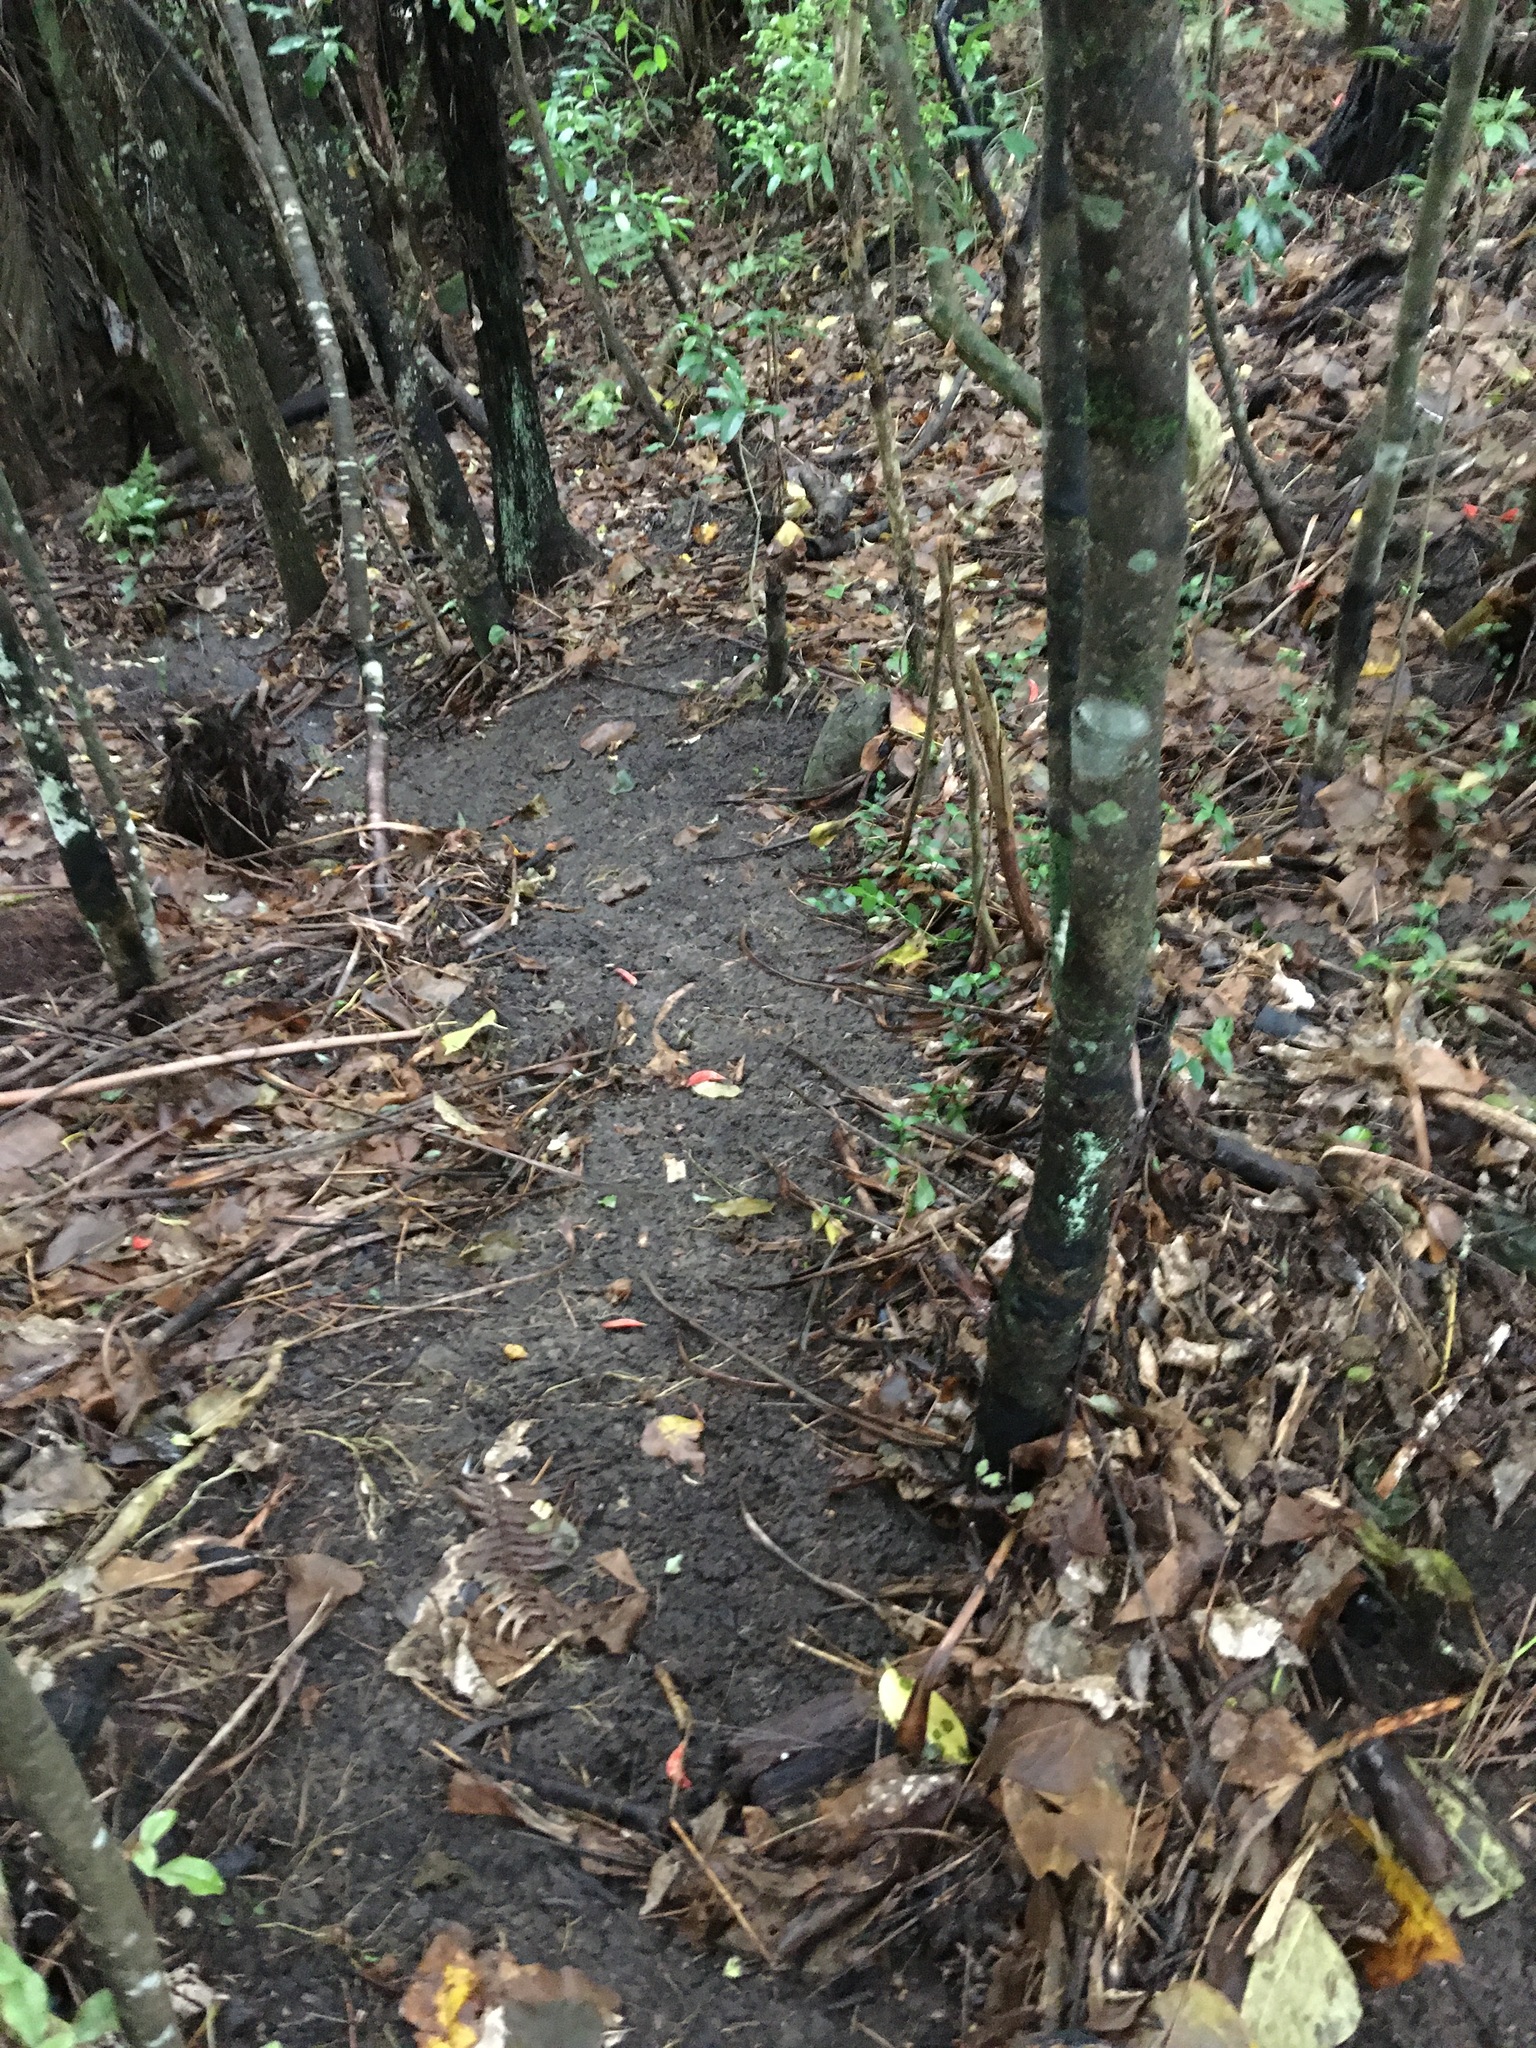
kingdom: Plantae
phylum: Tracheophyta
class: Liliopsida
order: Commelinales
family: Commelinaceae
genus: Tradescantia
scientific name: Tradescantia fluminensis
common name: Wandering-jew
